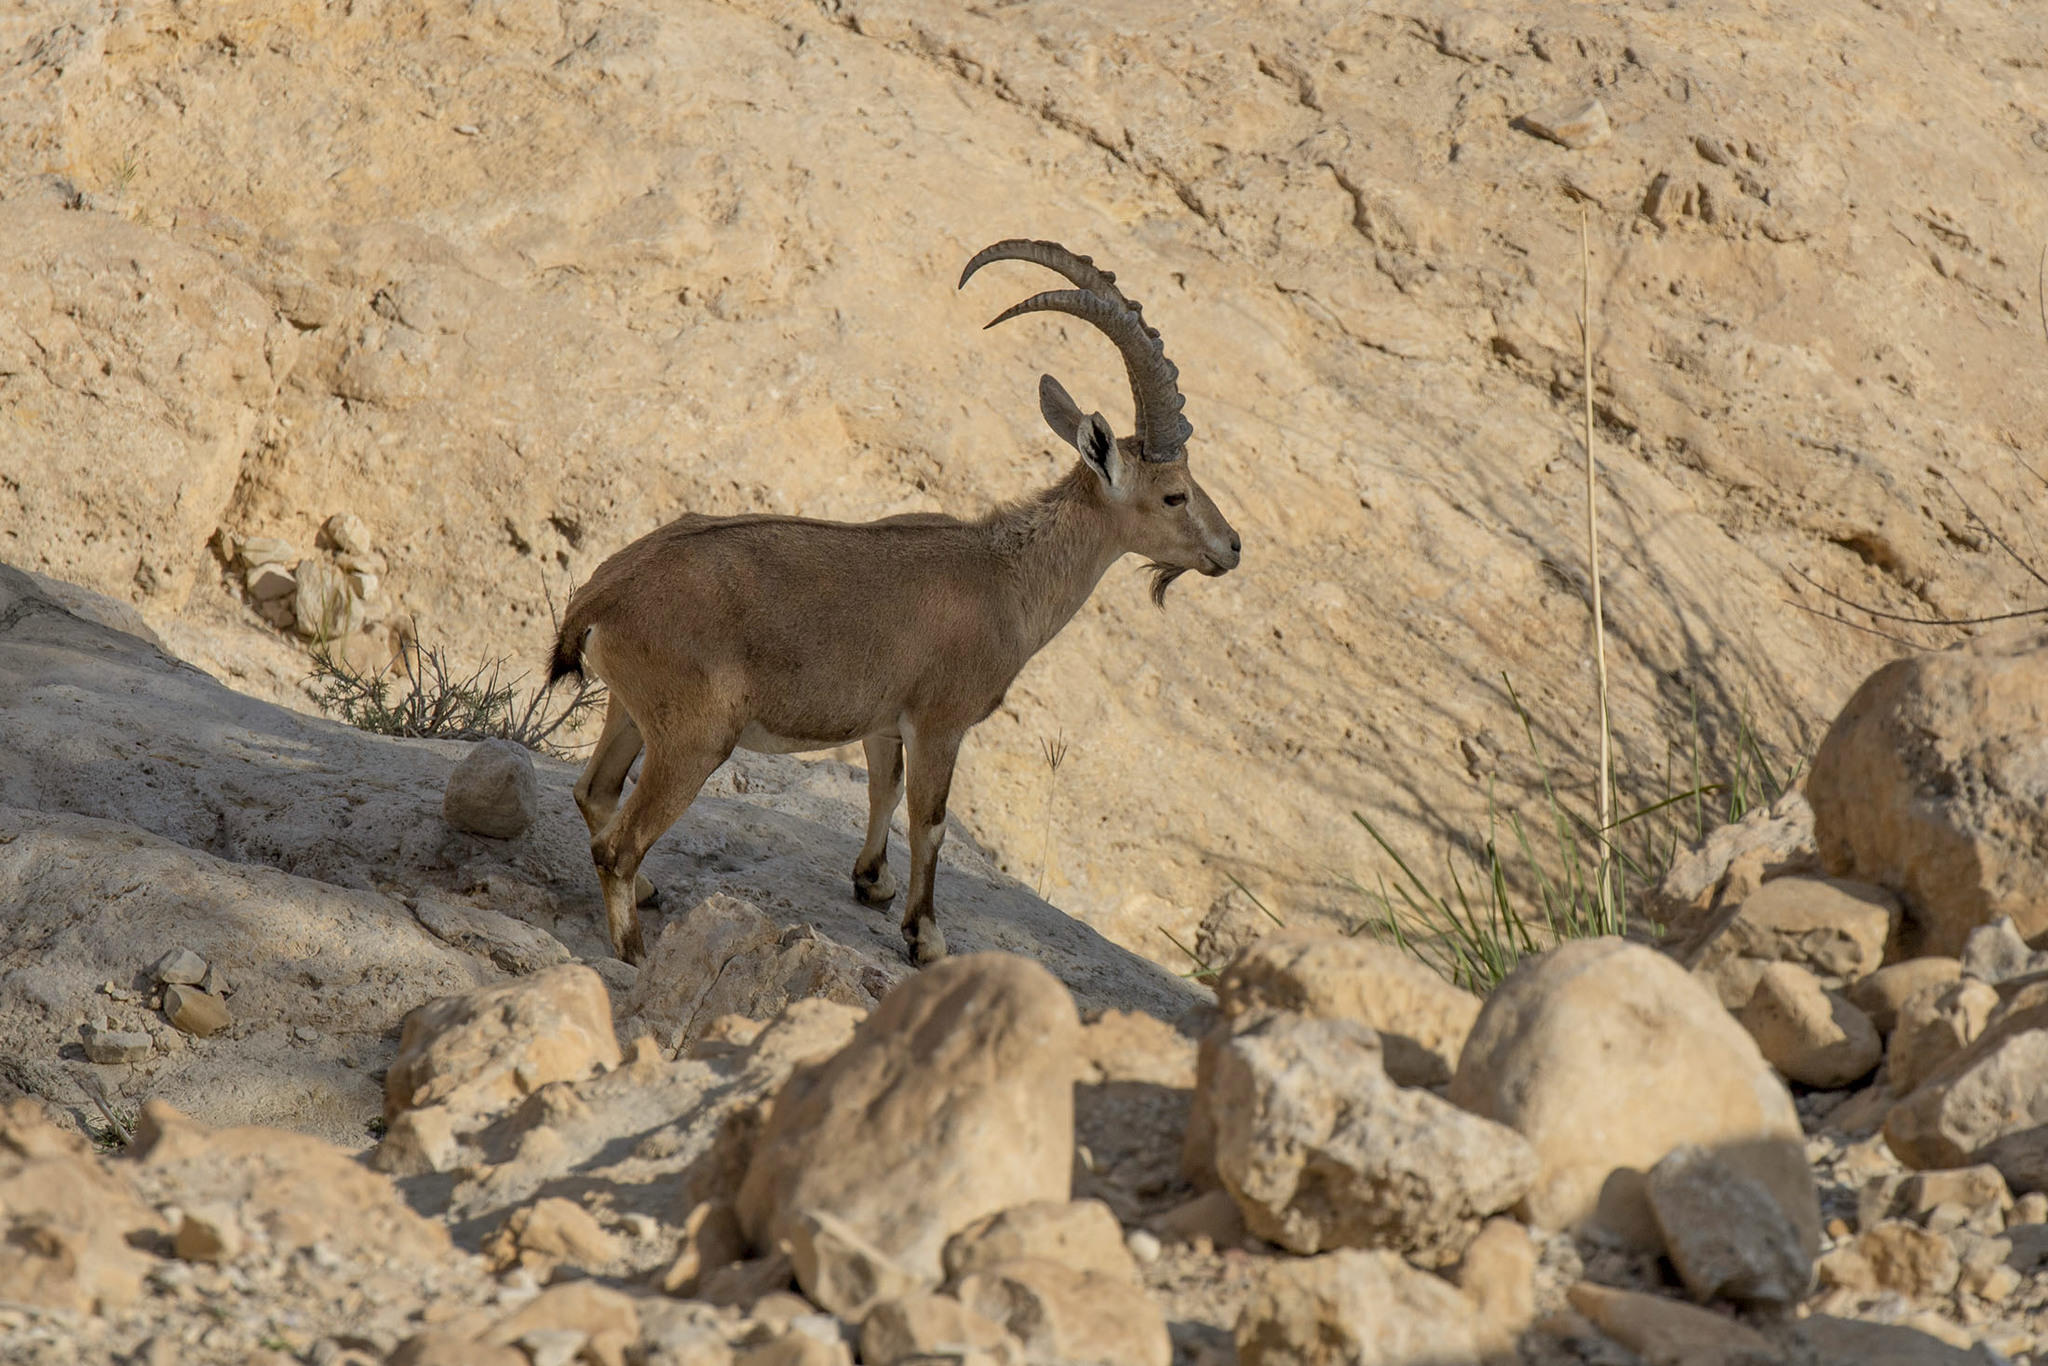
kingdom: Animalia
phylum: Chordata
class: Mammalia
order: Artiodactyla
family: Bovidae
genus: Capra
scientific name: Capra nubiana
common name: Nubian ibex
